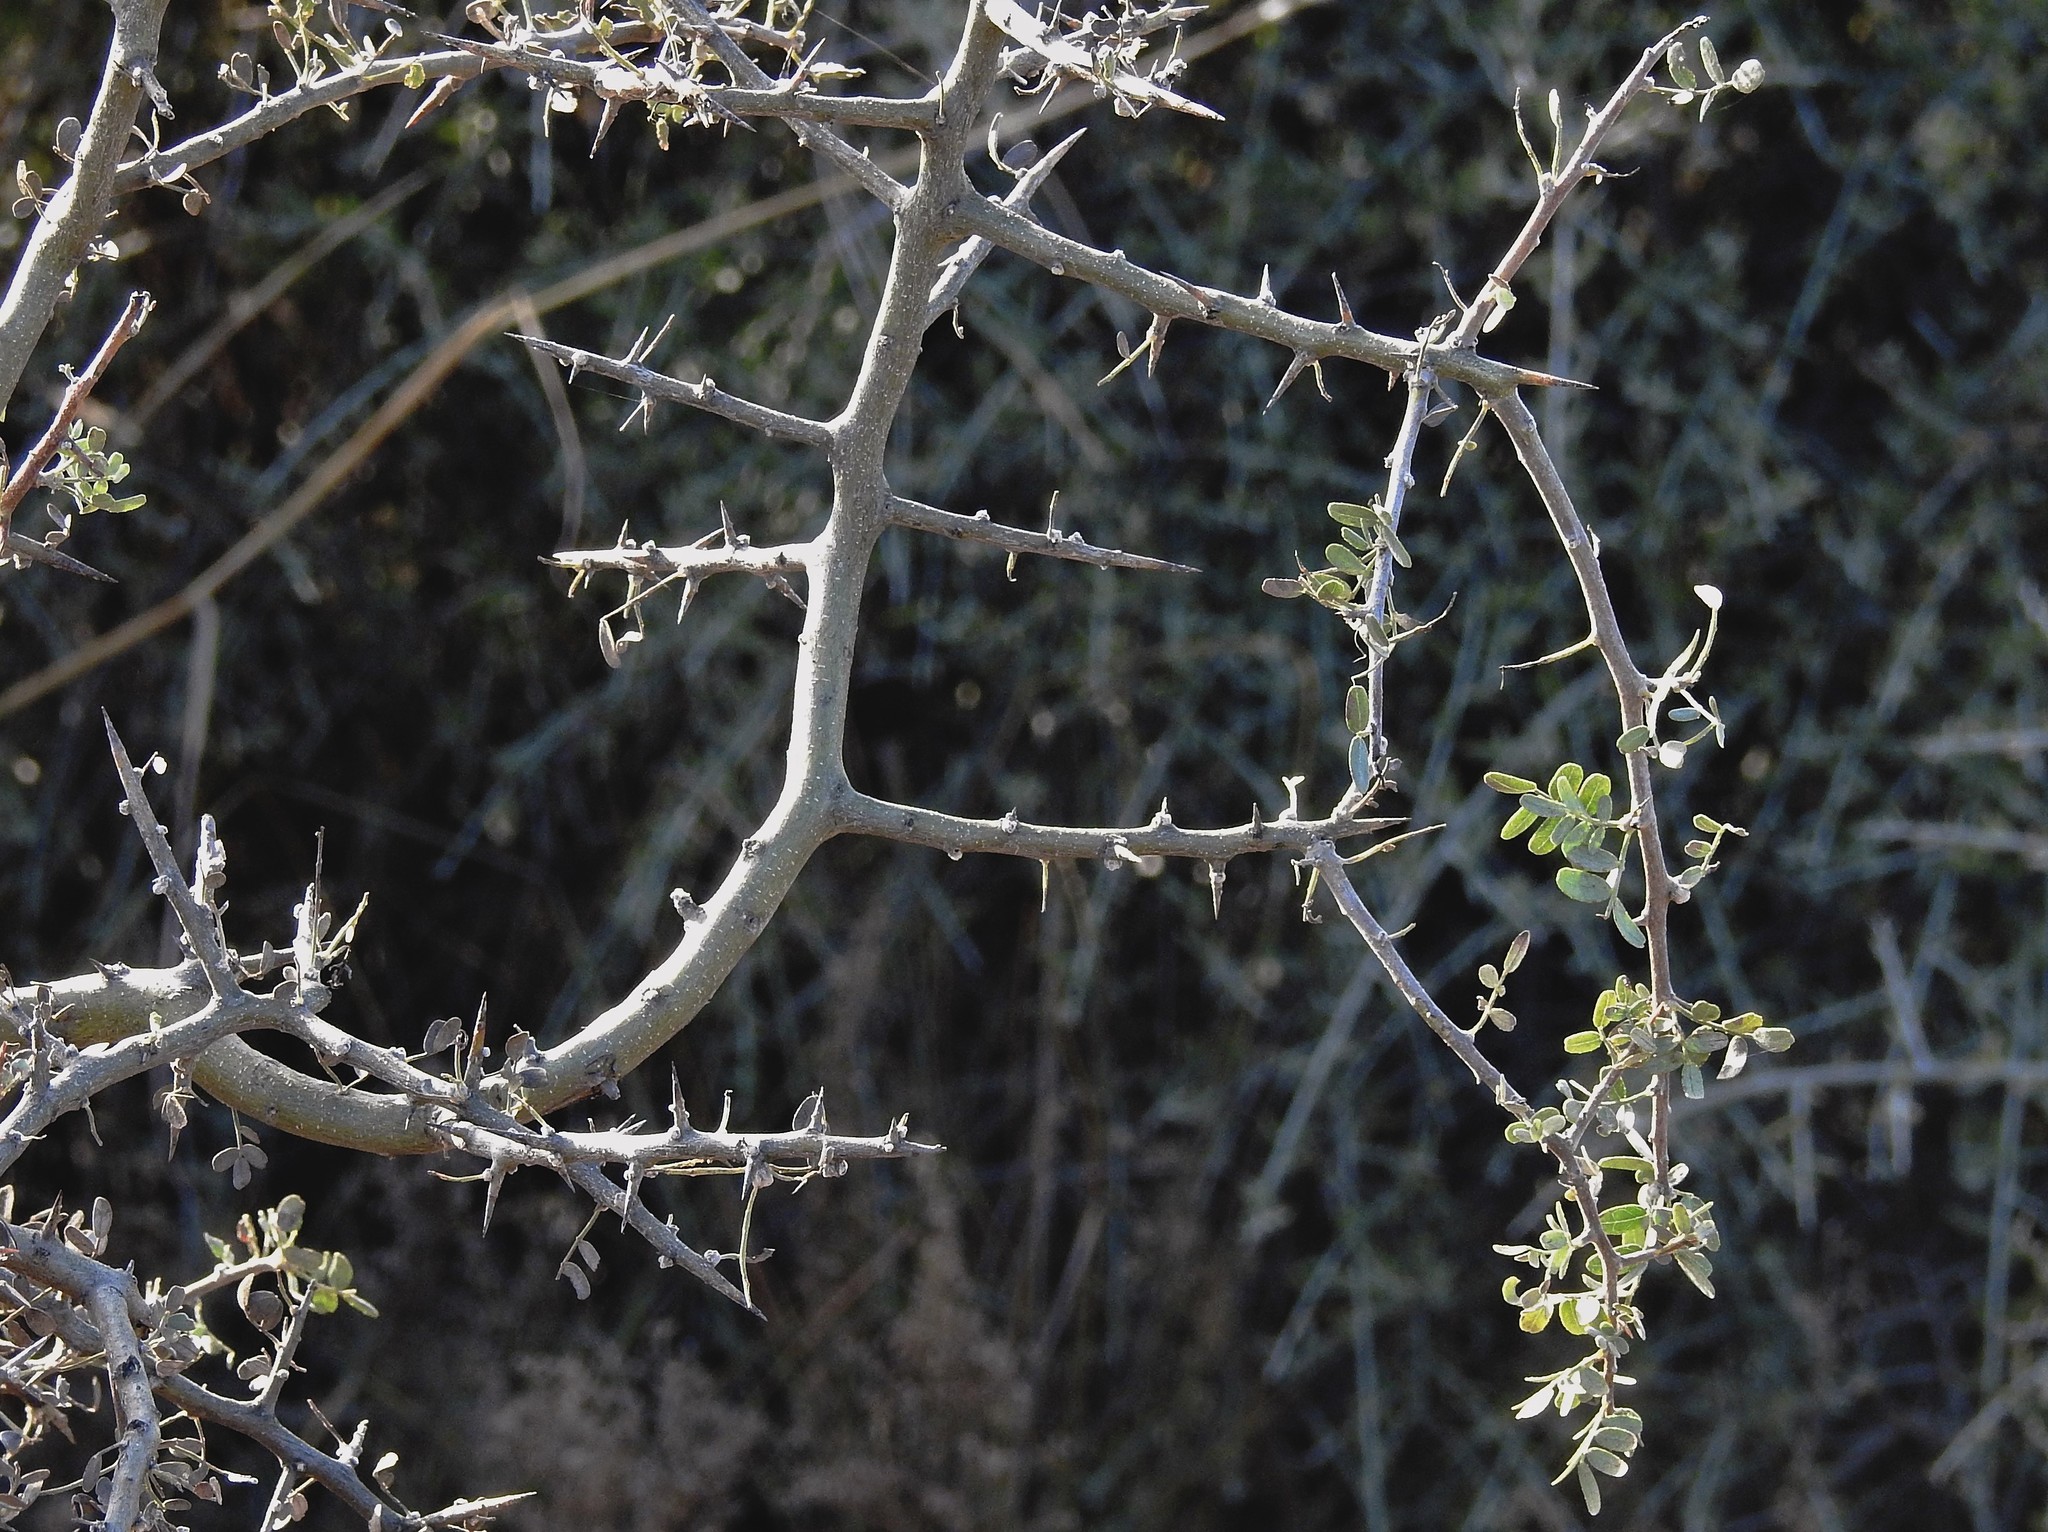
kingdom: Plantae
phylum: Tracheophyta
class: Magnoliopsida
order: Fabales
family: Fabaceae
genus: Geoffroea
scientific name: Geoffroea decorticans
